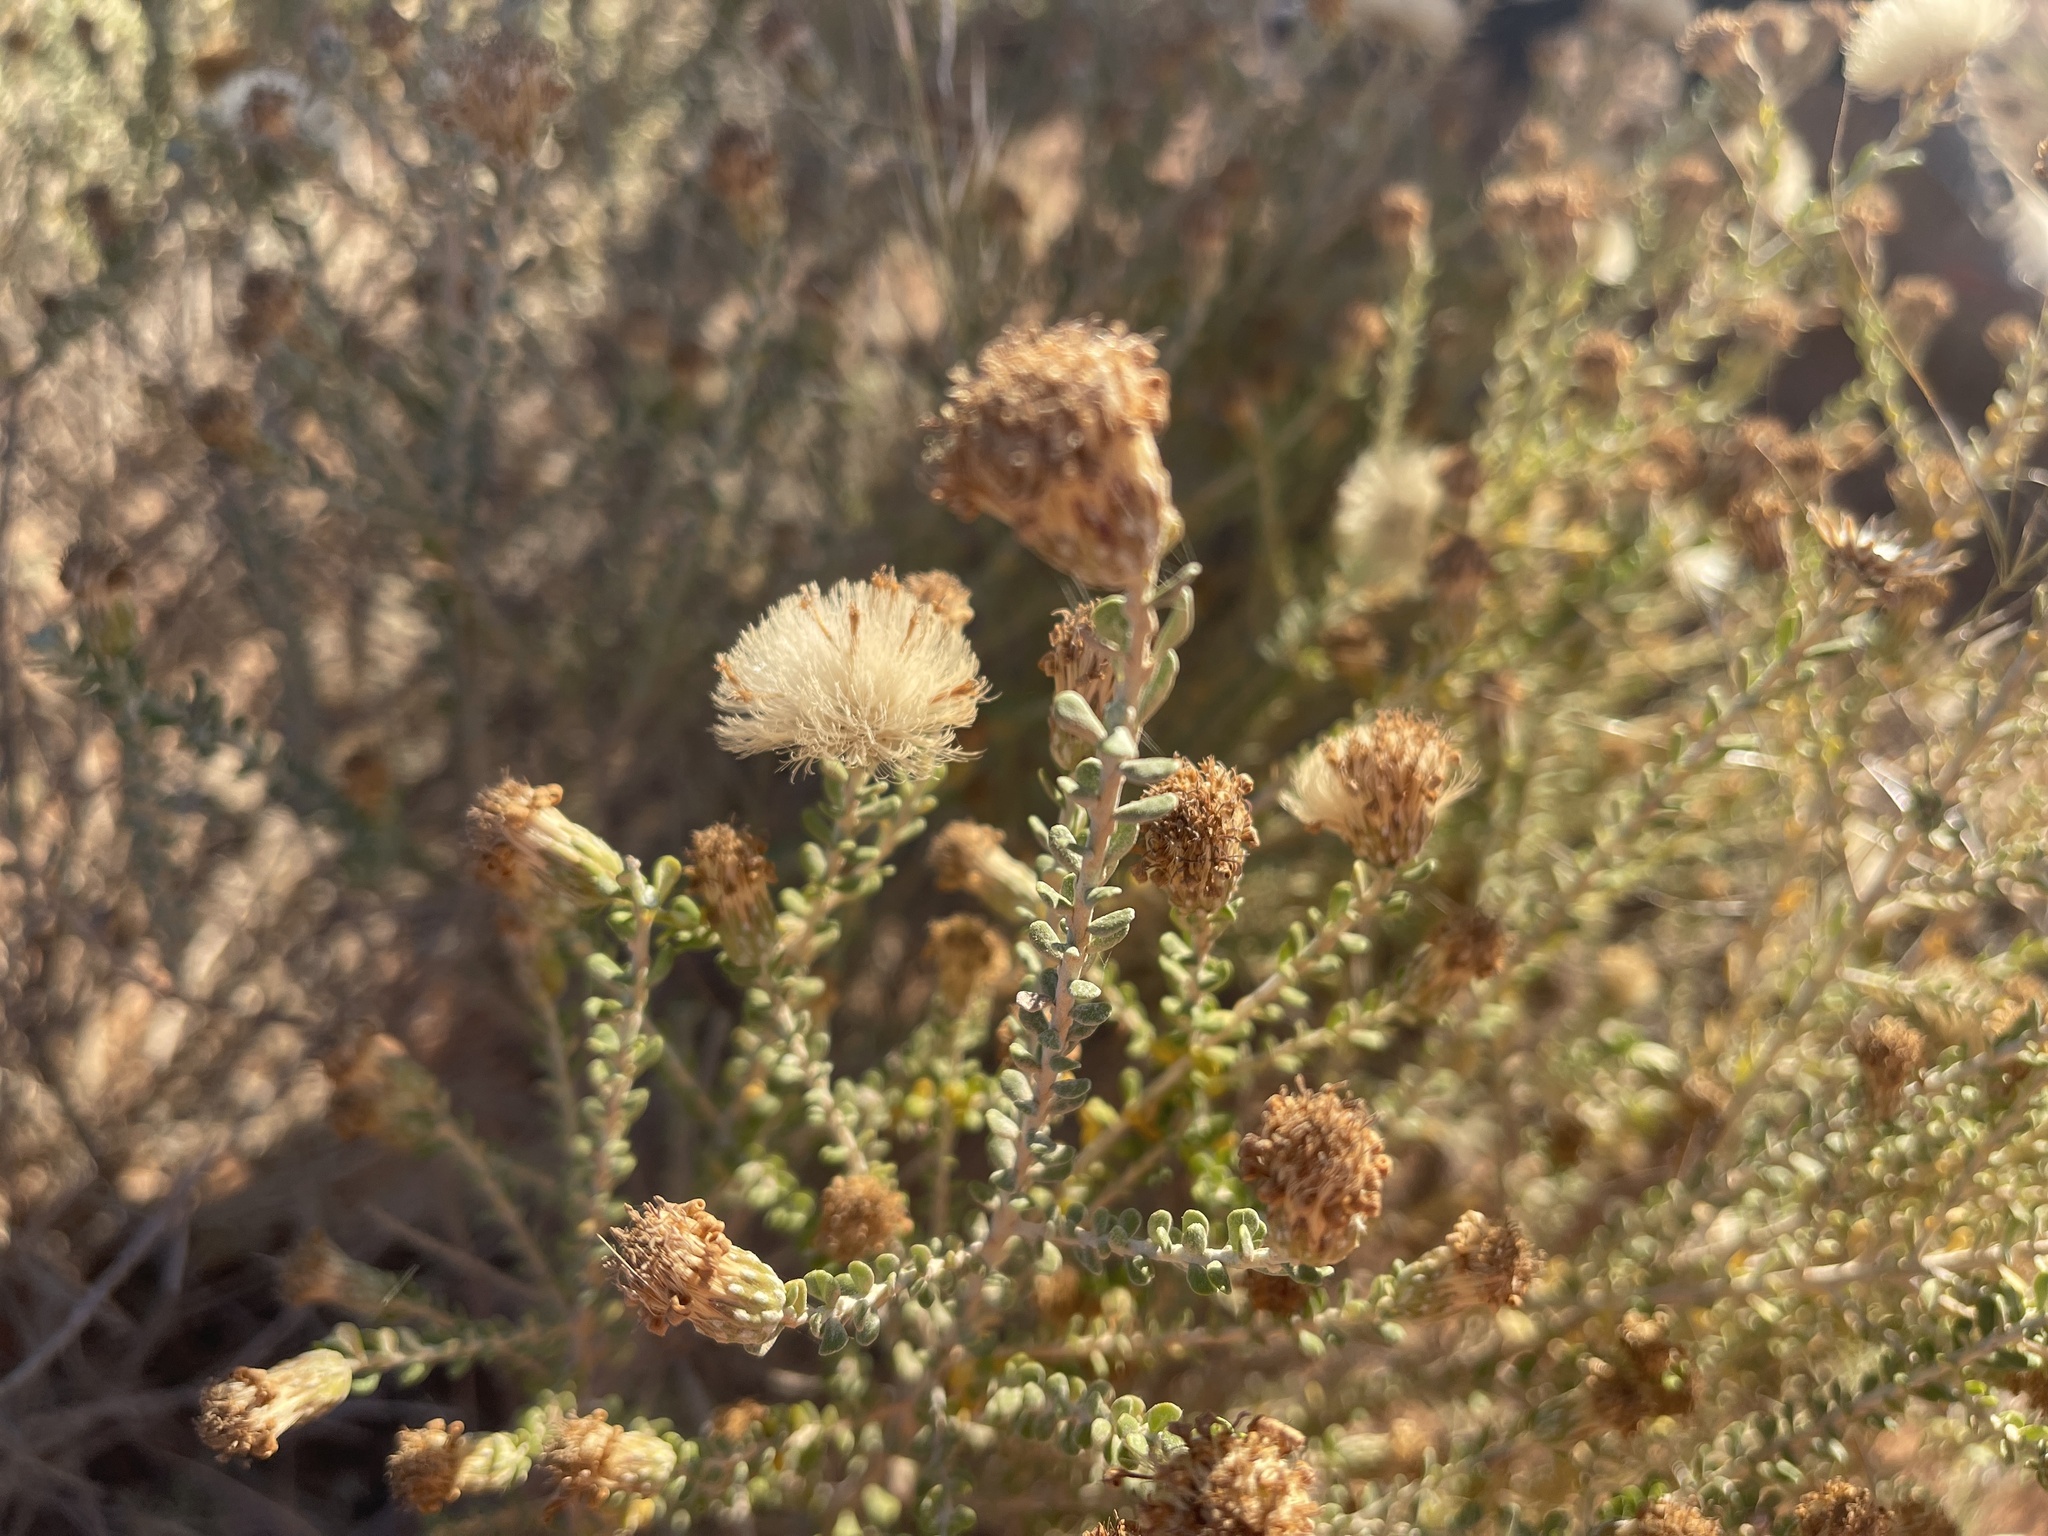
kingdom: Plantae
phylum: Tracheophyta
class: Magnoliopsida
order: Asterales
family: Asteraceae
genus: Olearia
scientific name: Olearia pimeleoides
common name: Showy daisybush
